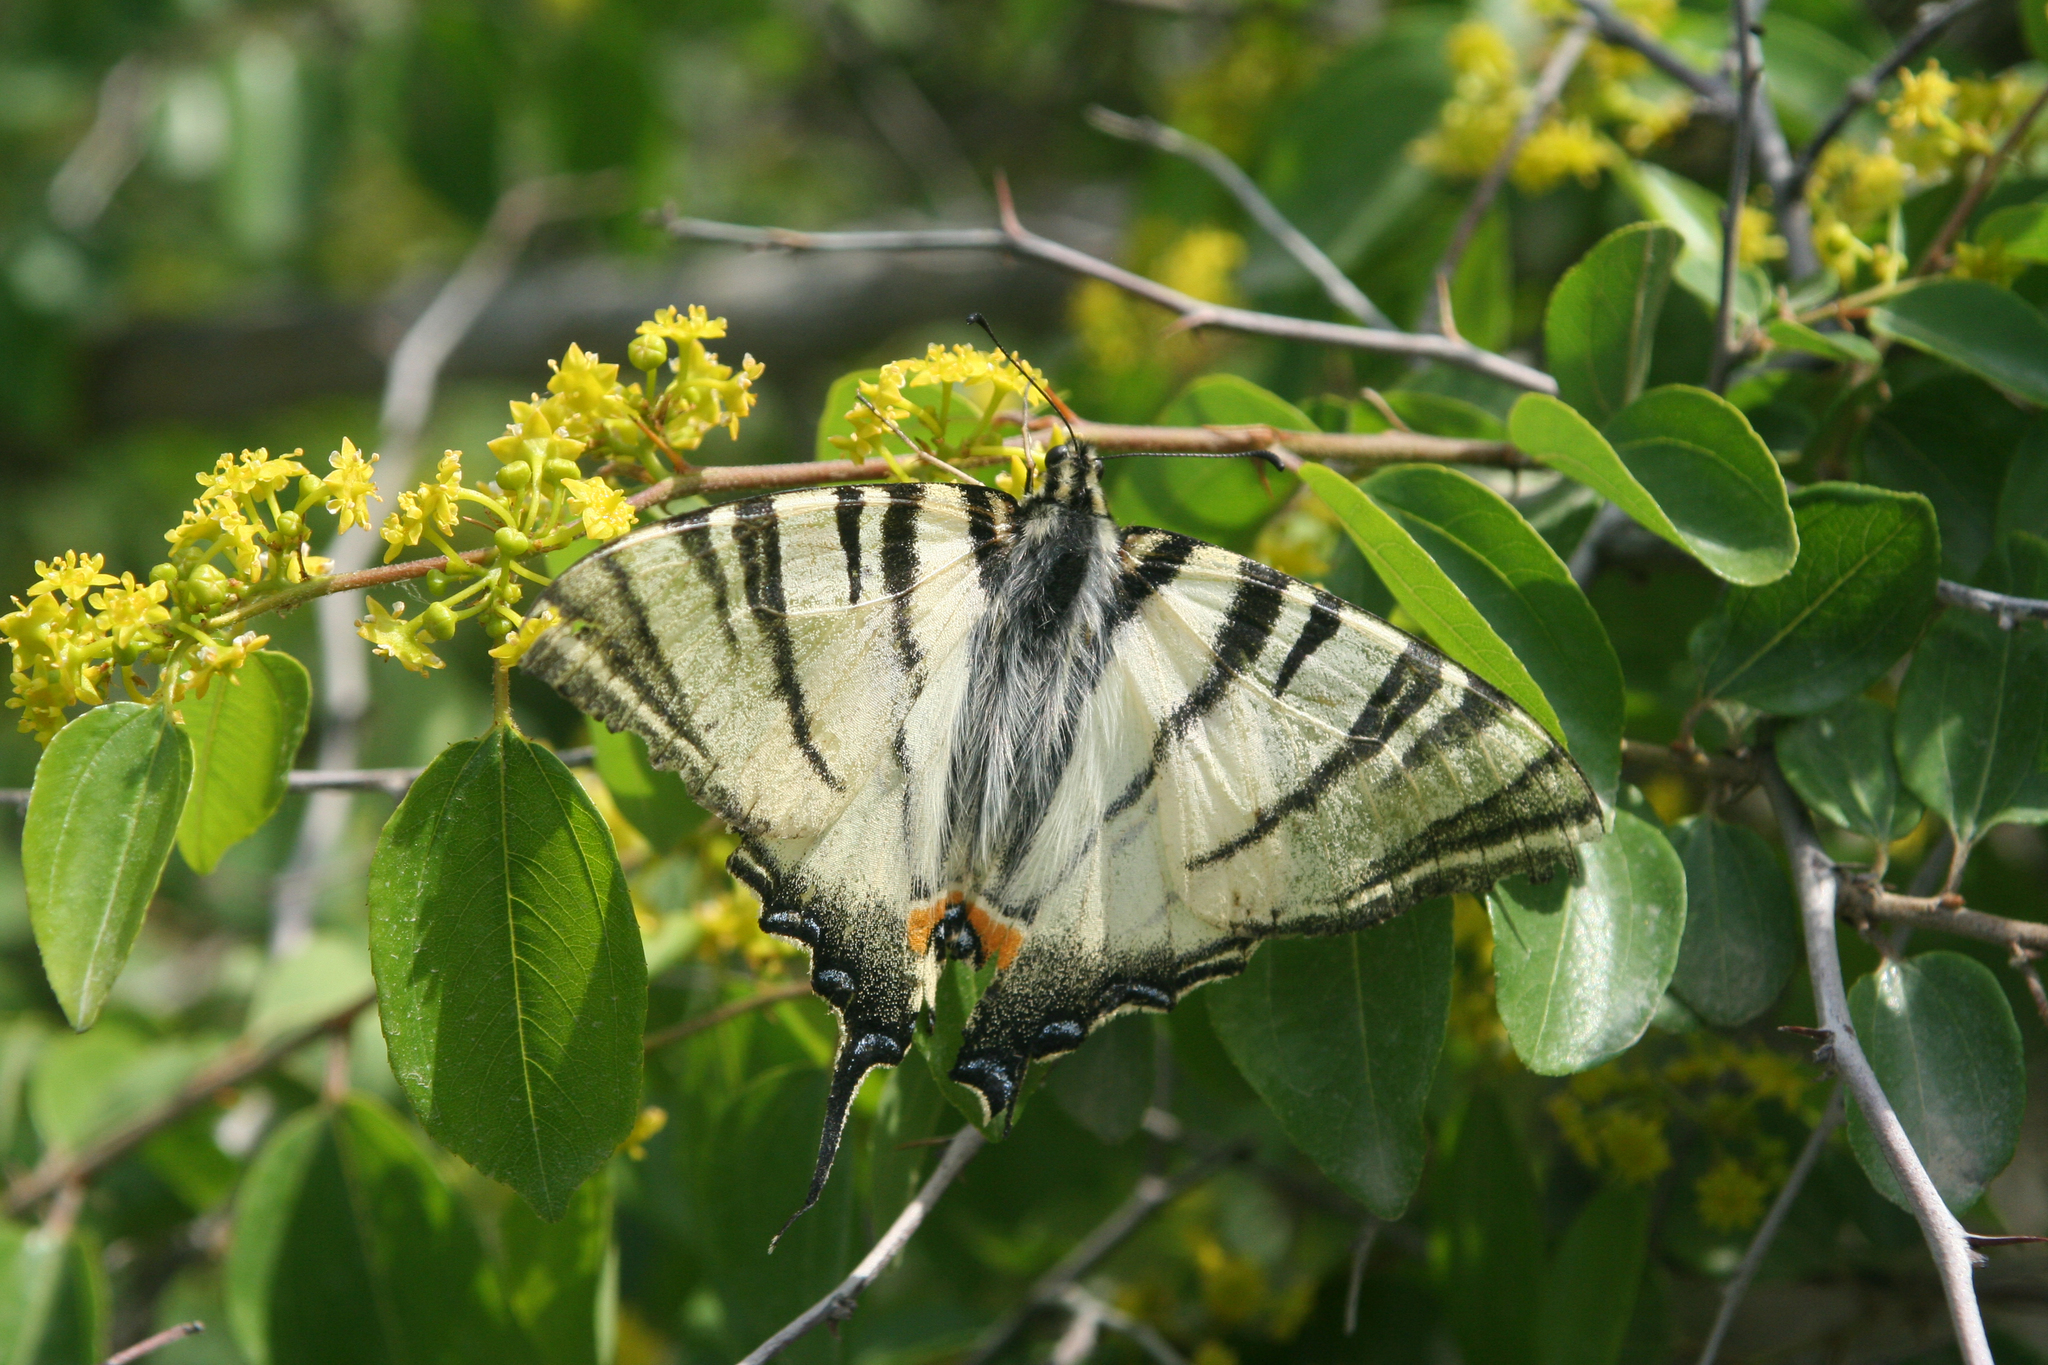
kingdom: Plantae
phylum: Tracheophyta
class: Magnoliopsida
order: Rosales
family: Rhamnaceae
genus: Paliurus
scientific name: Paliurus spina-christi
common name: Jeruselem thorn
